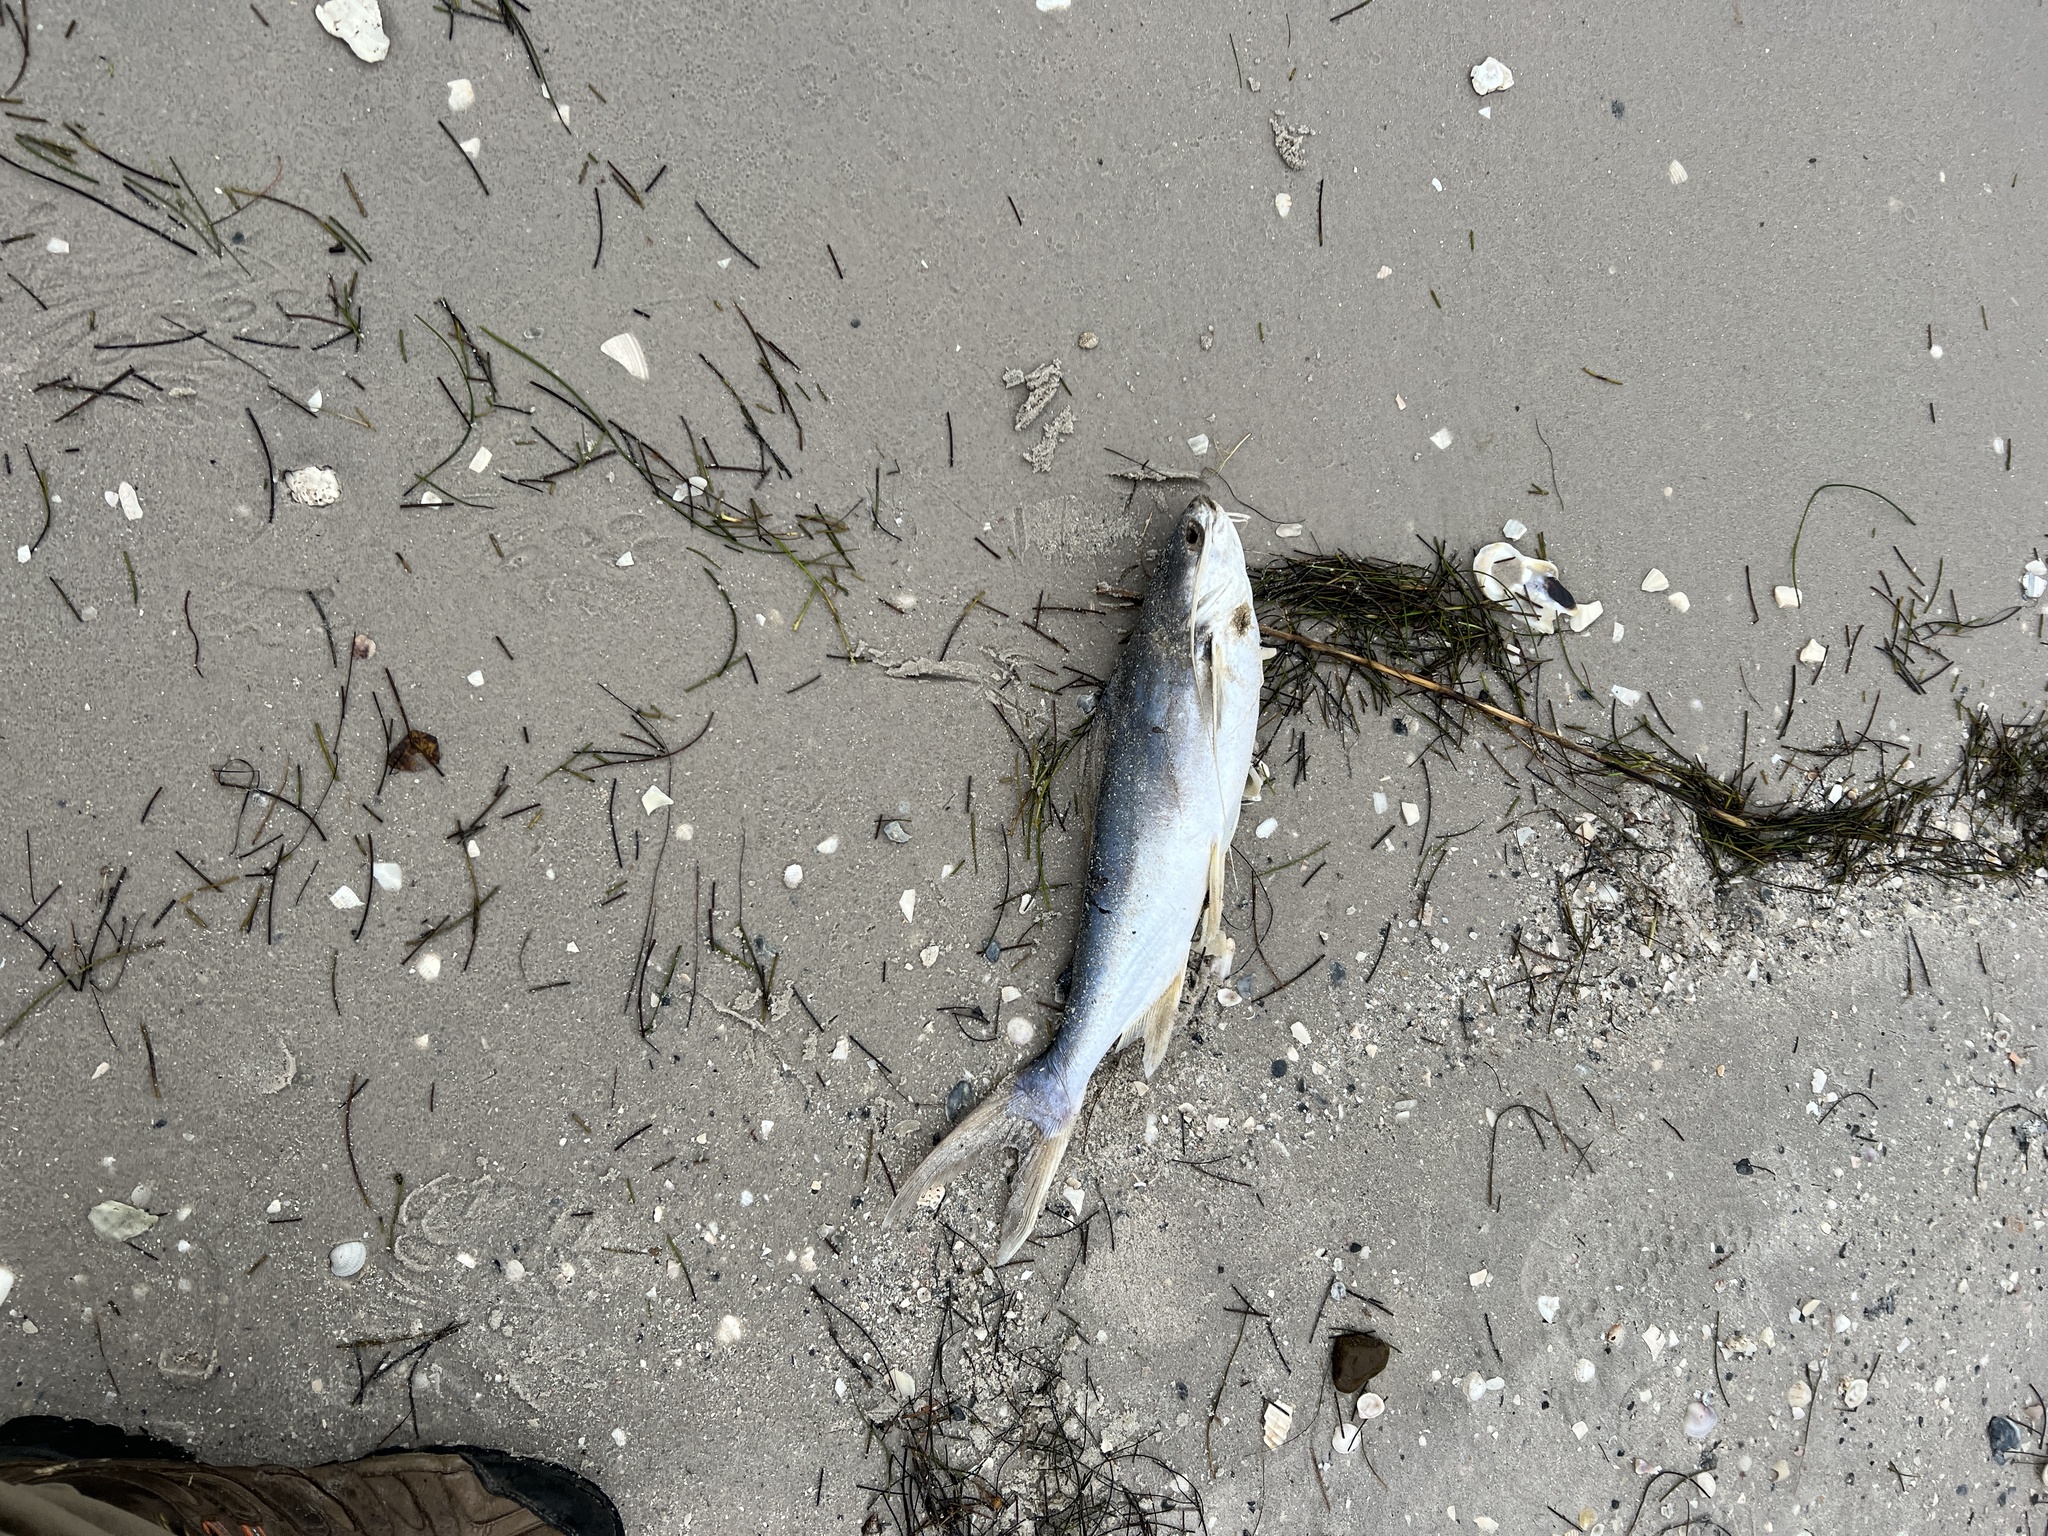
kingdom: Animalia
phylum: Chordata
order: Siluriformes
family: Ariidae
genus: Bagre
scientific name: Bagre marinus
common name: Gafftopsail sea catfish
